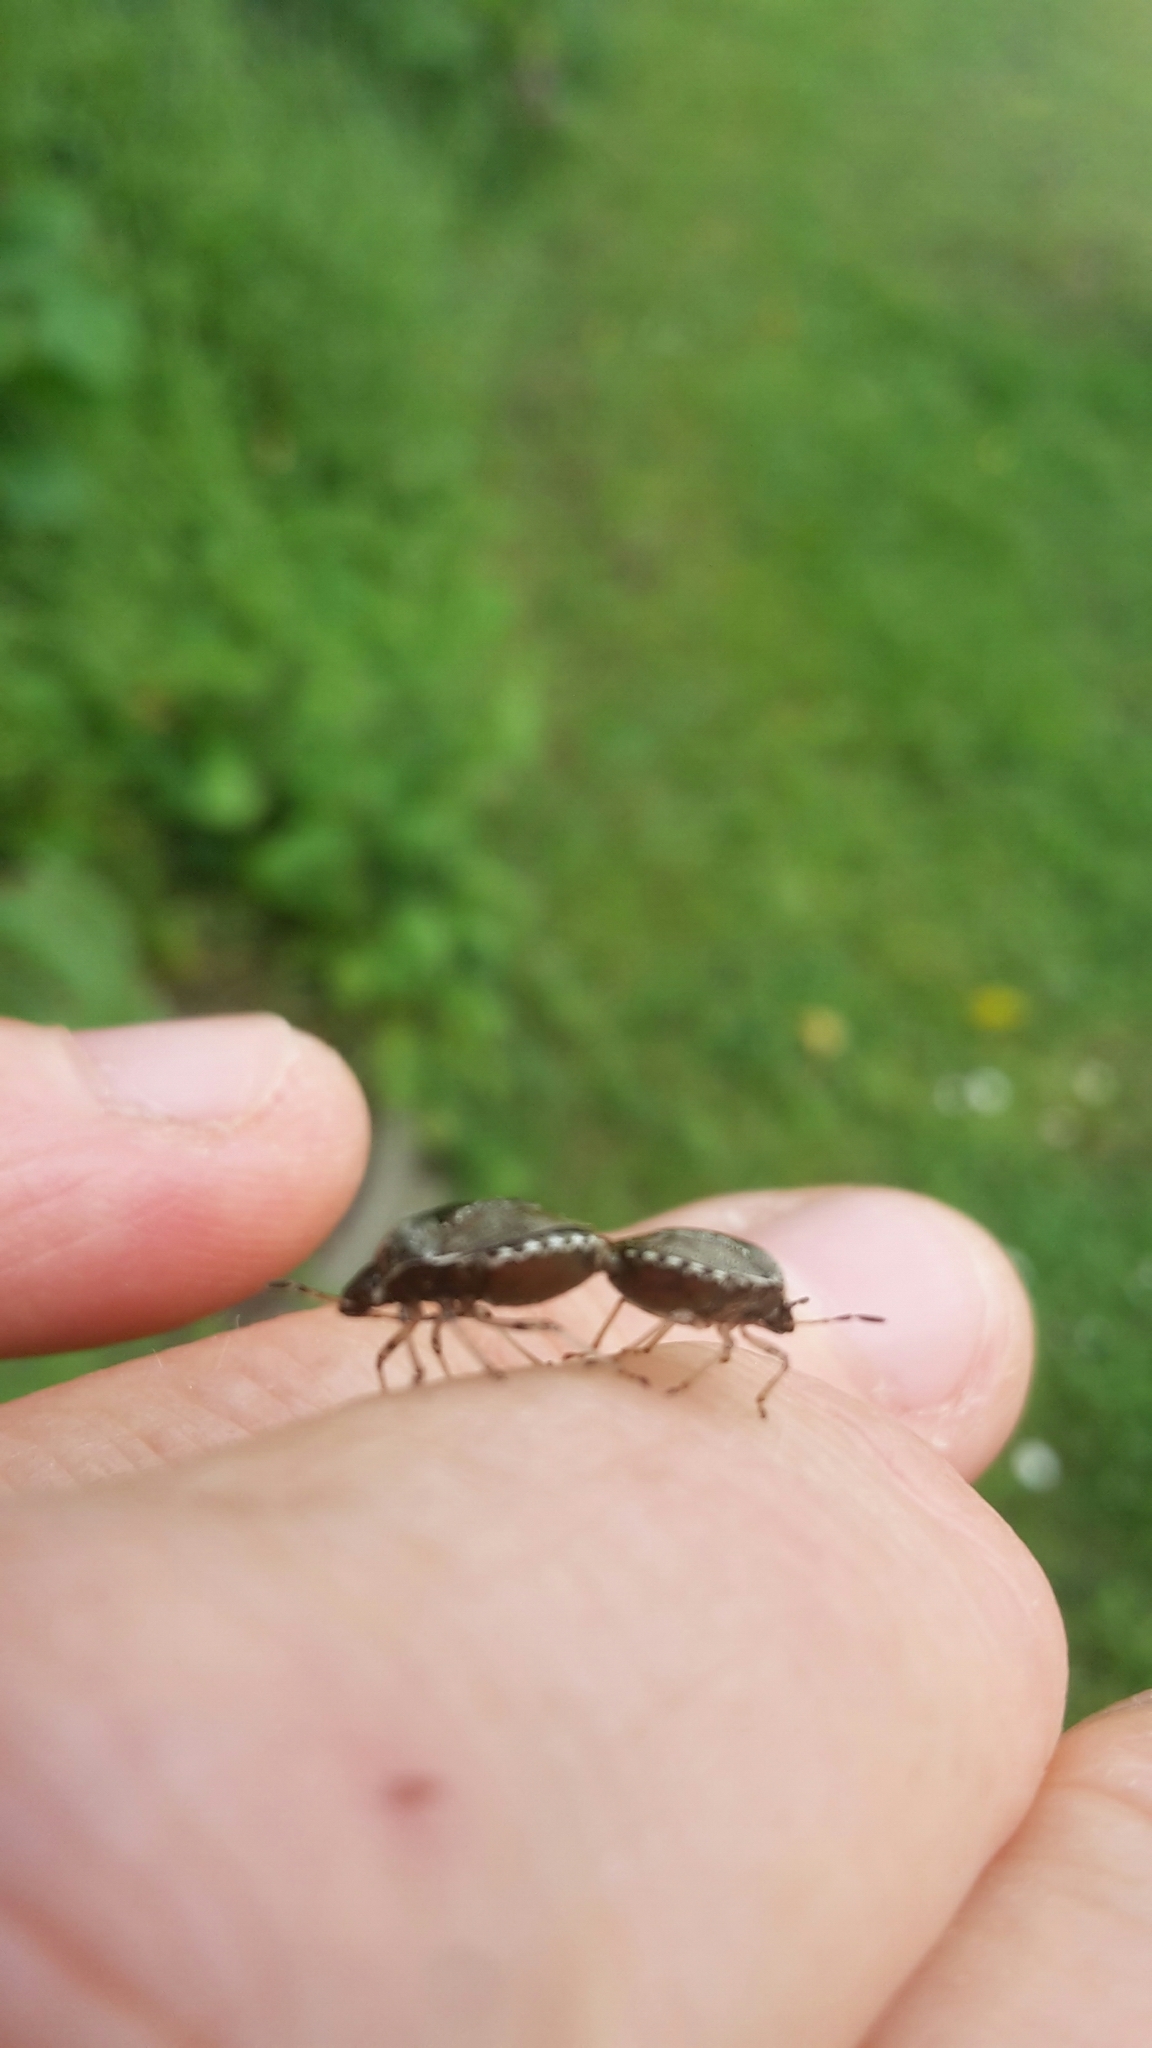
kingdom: Animalia
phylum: Arthropoda
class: Insecta
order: Hemiptera
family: Pentatomidae
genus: Eysarcoris
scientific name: Eysarcoris venustissimus
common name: Woundwort shieldbug
